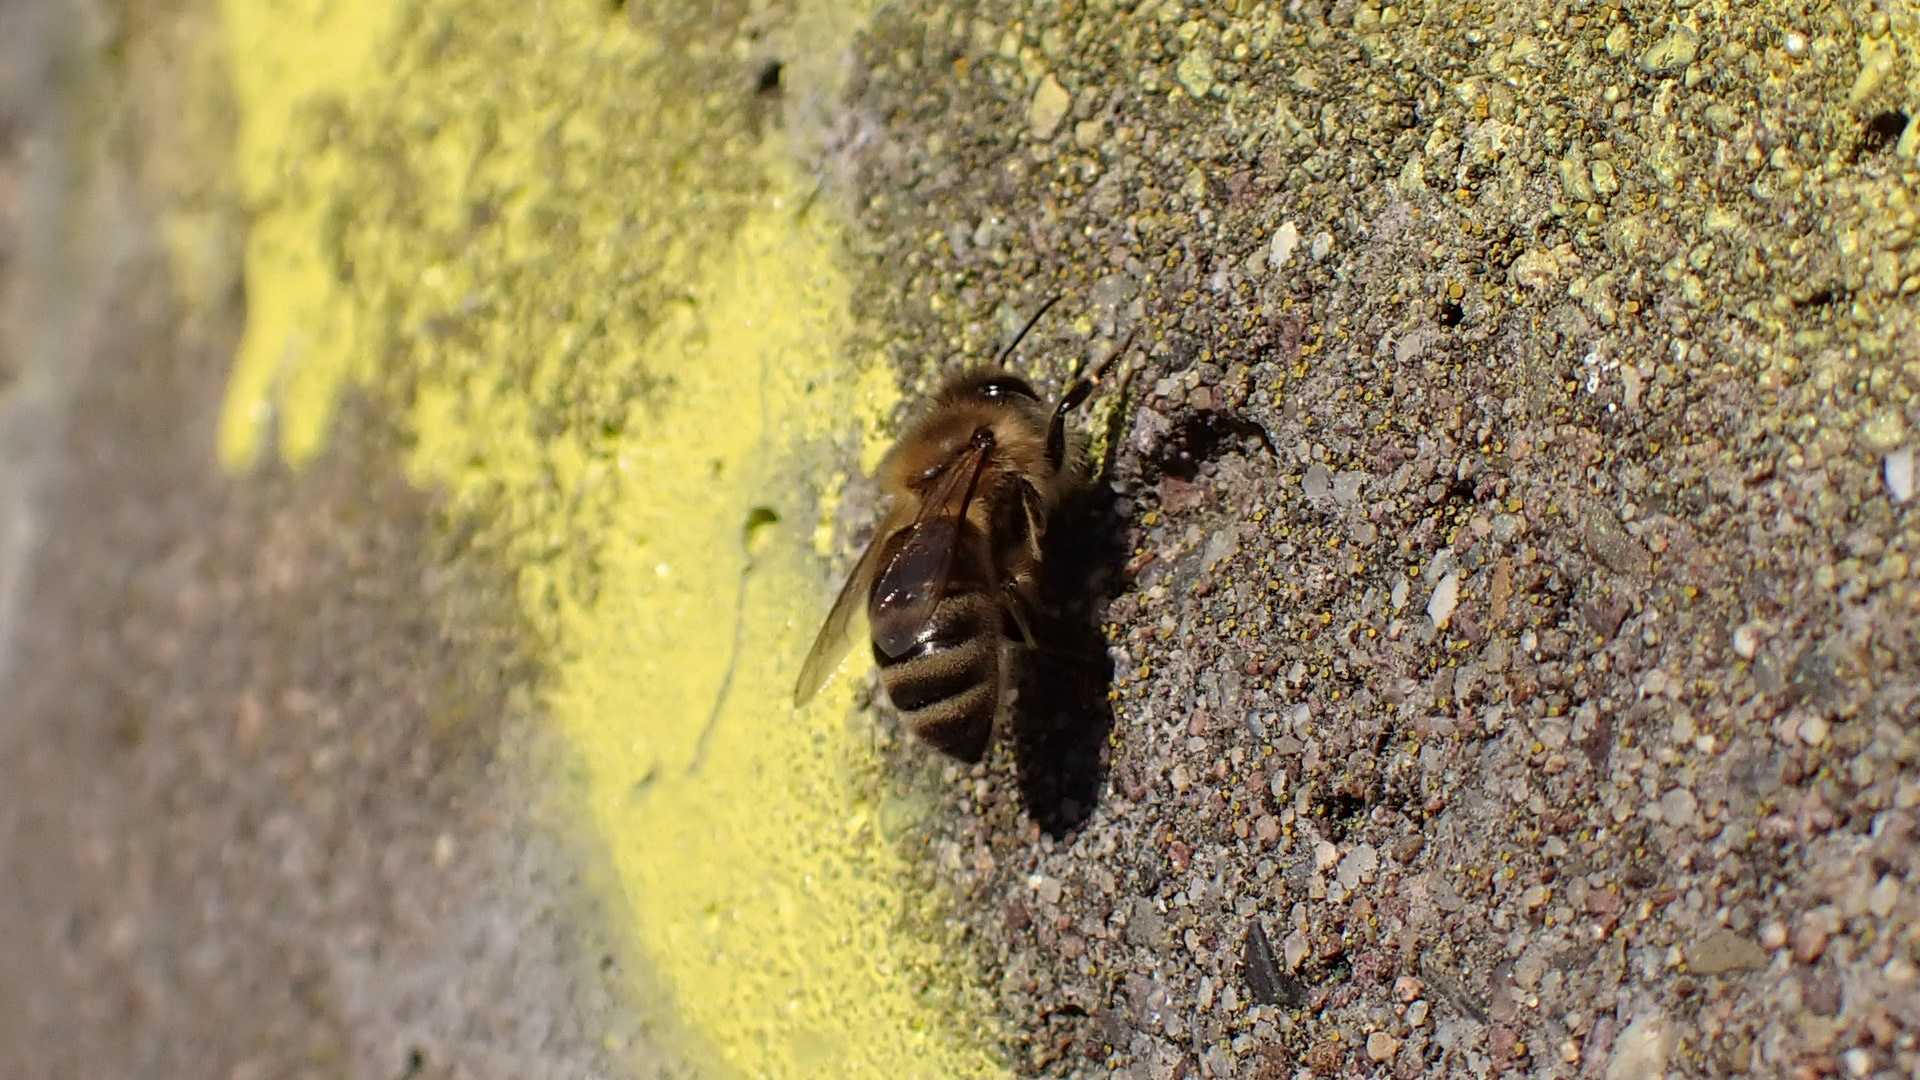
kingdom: Animalia
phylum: Arthropoda
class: Insecta
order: Hymenoptera
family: Apidae
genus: Apis
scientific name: Apis mellifera
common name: Honey bee
